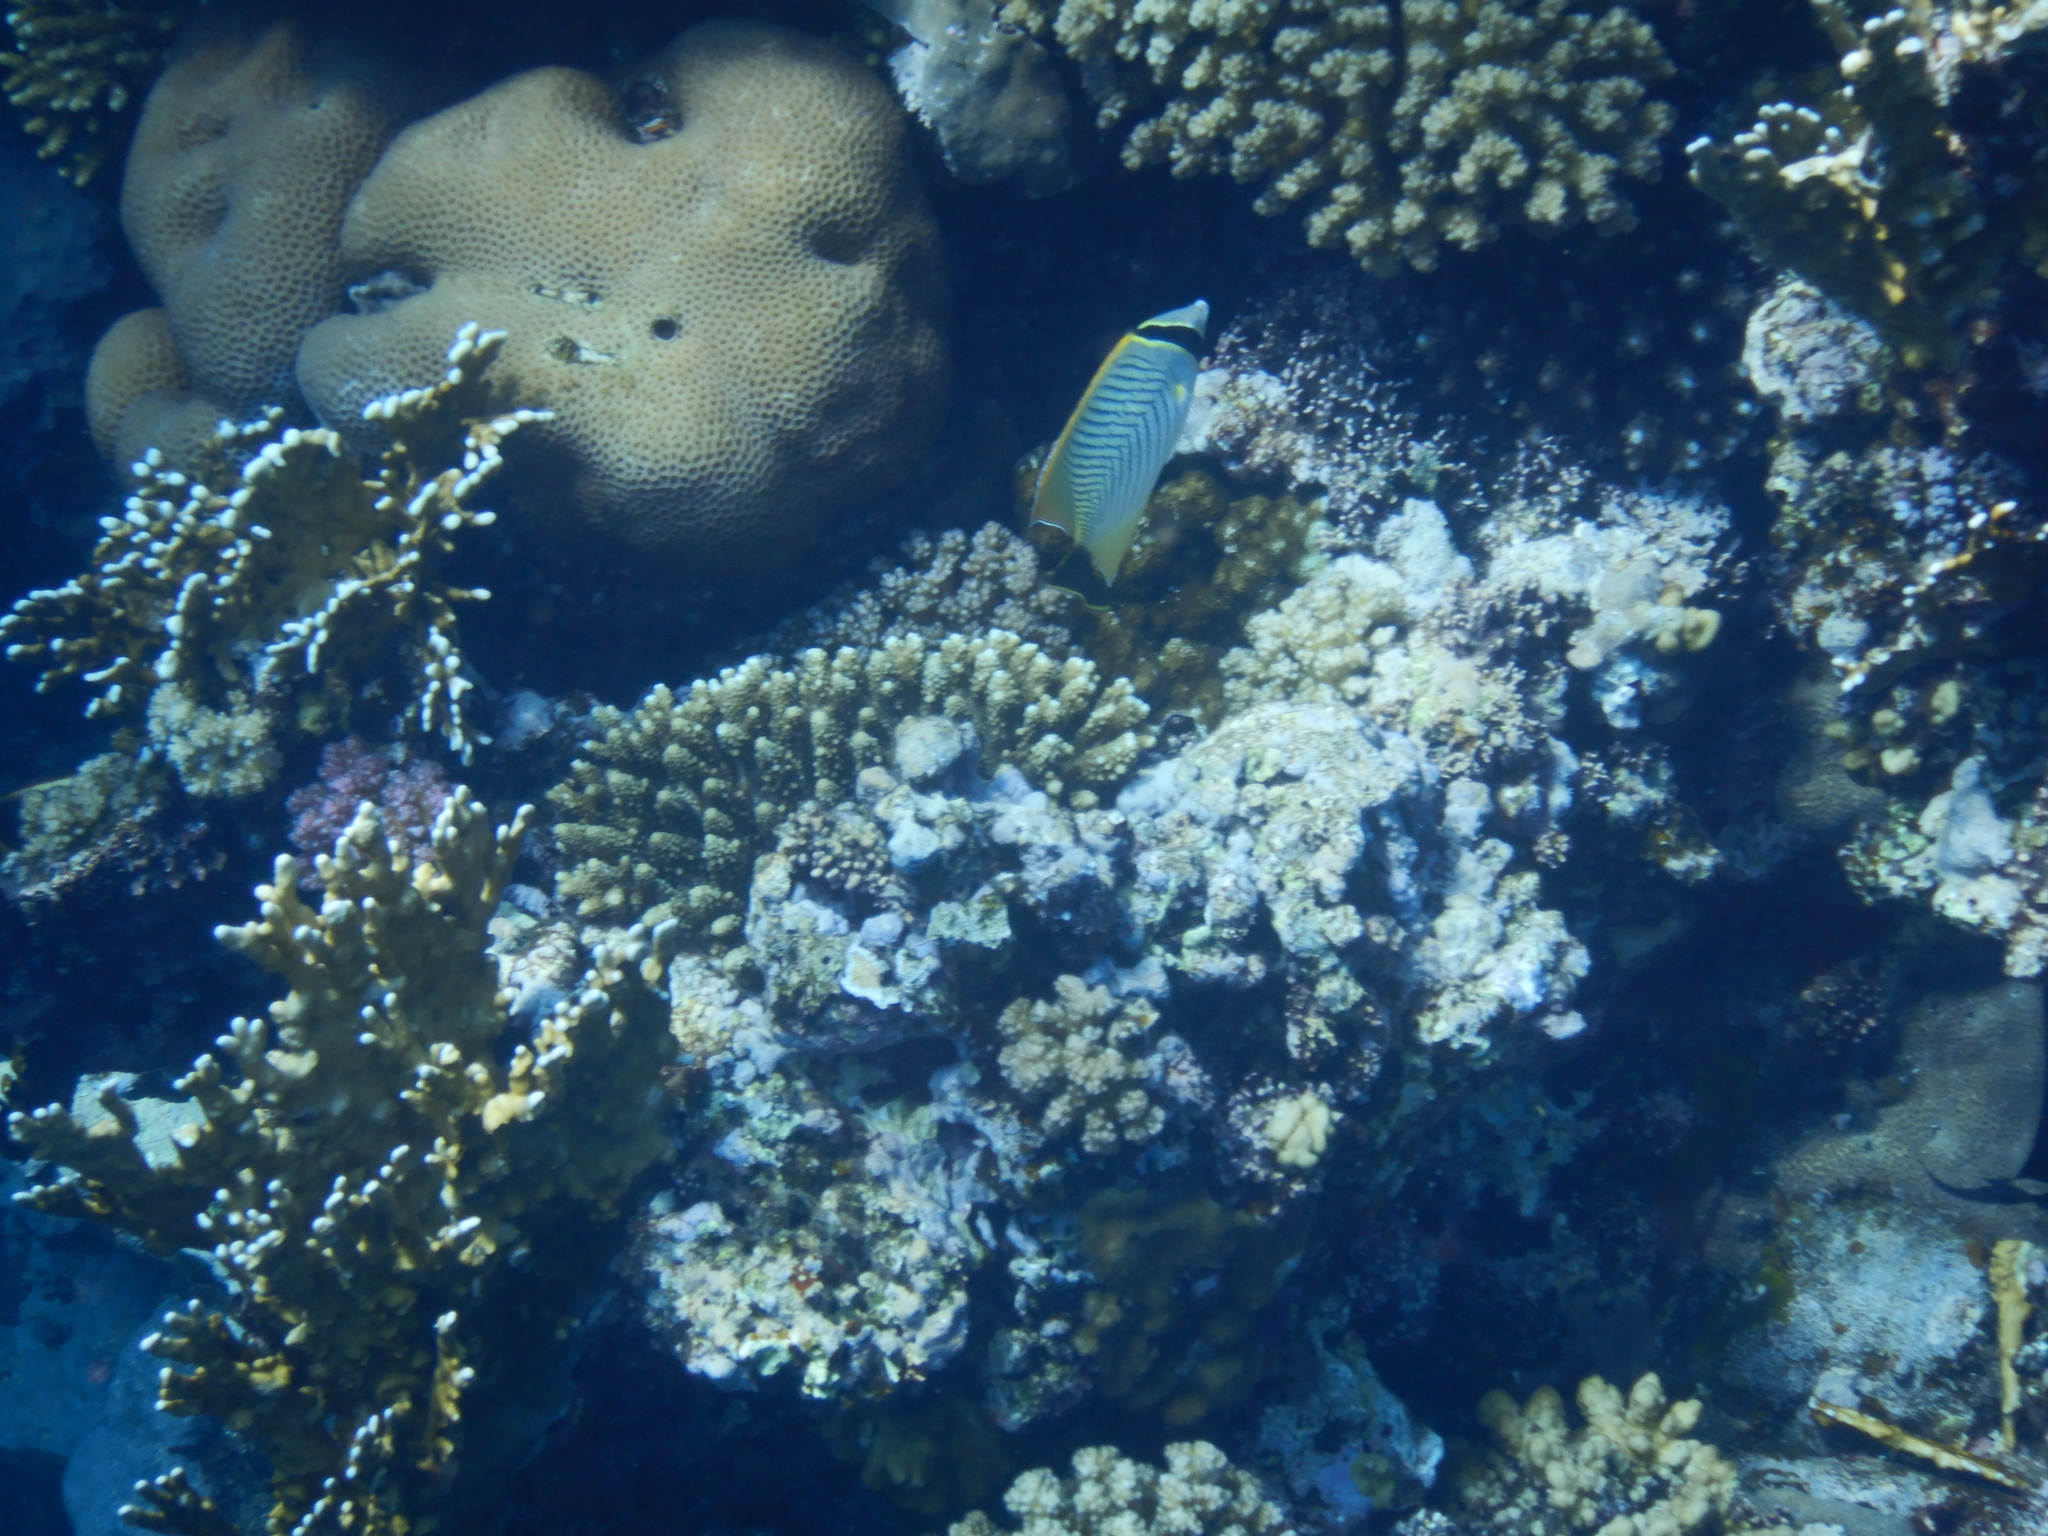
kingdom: Animalia
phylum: Chordata
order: Perciformes
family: Chaetodontidae
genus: Chaetodon
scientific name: Chaetodon trifascialis
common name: Chevroned butterflyfish
